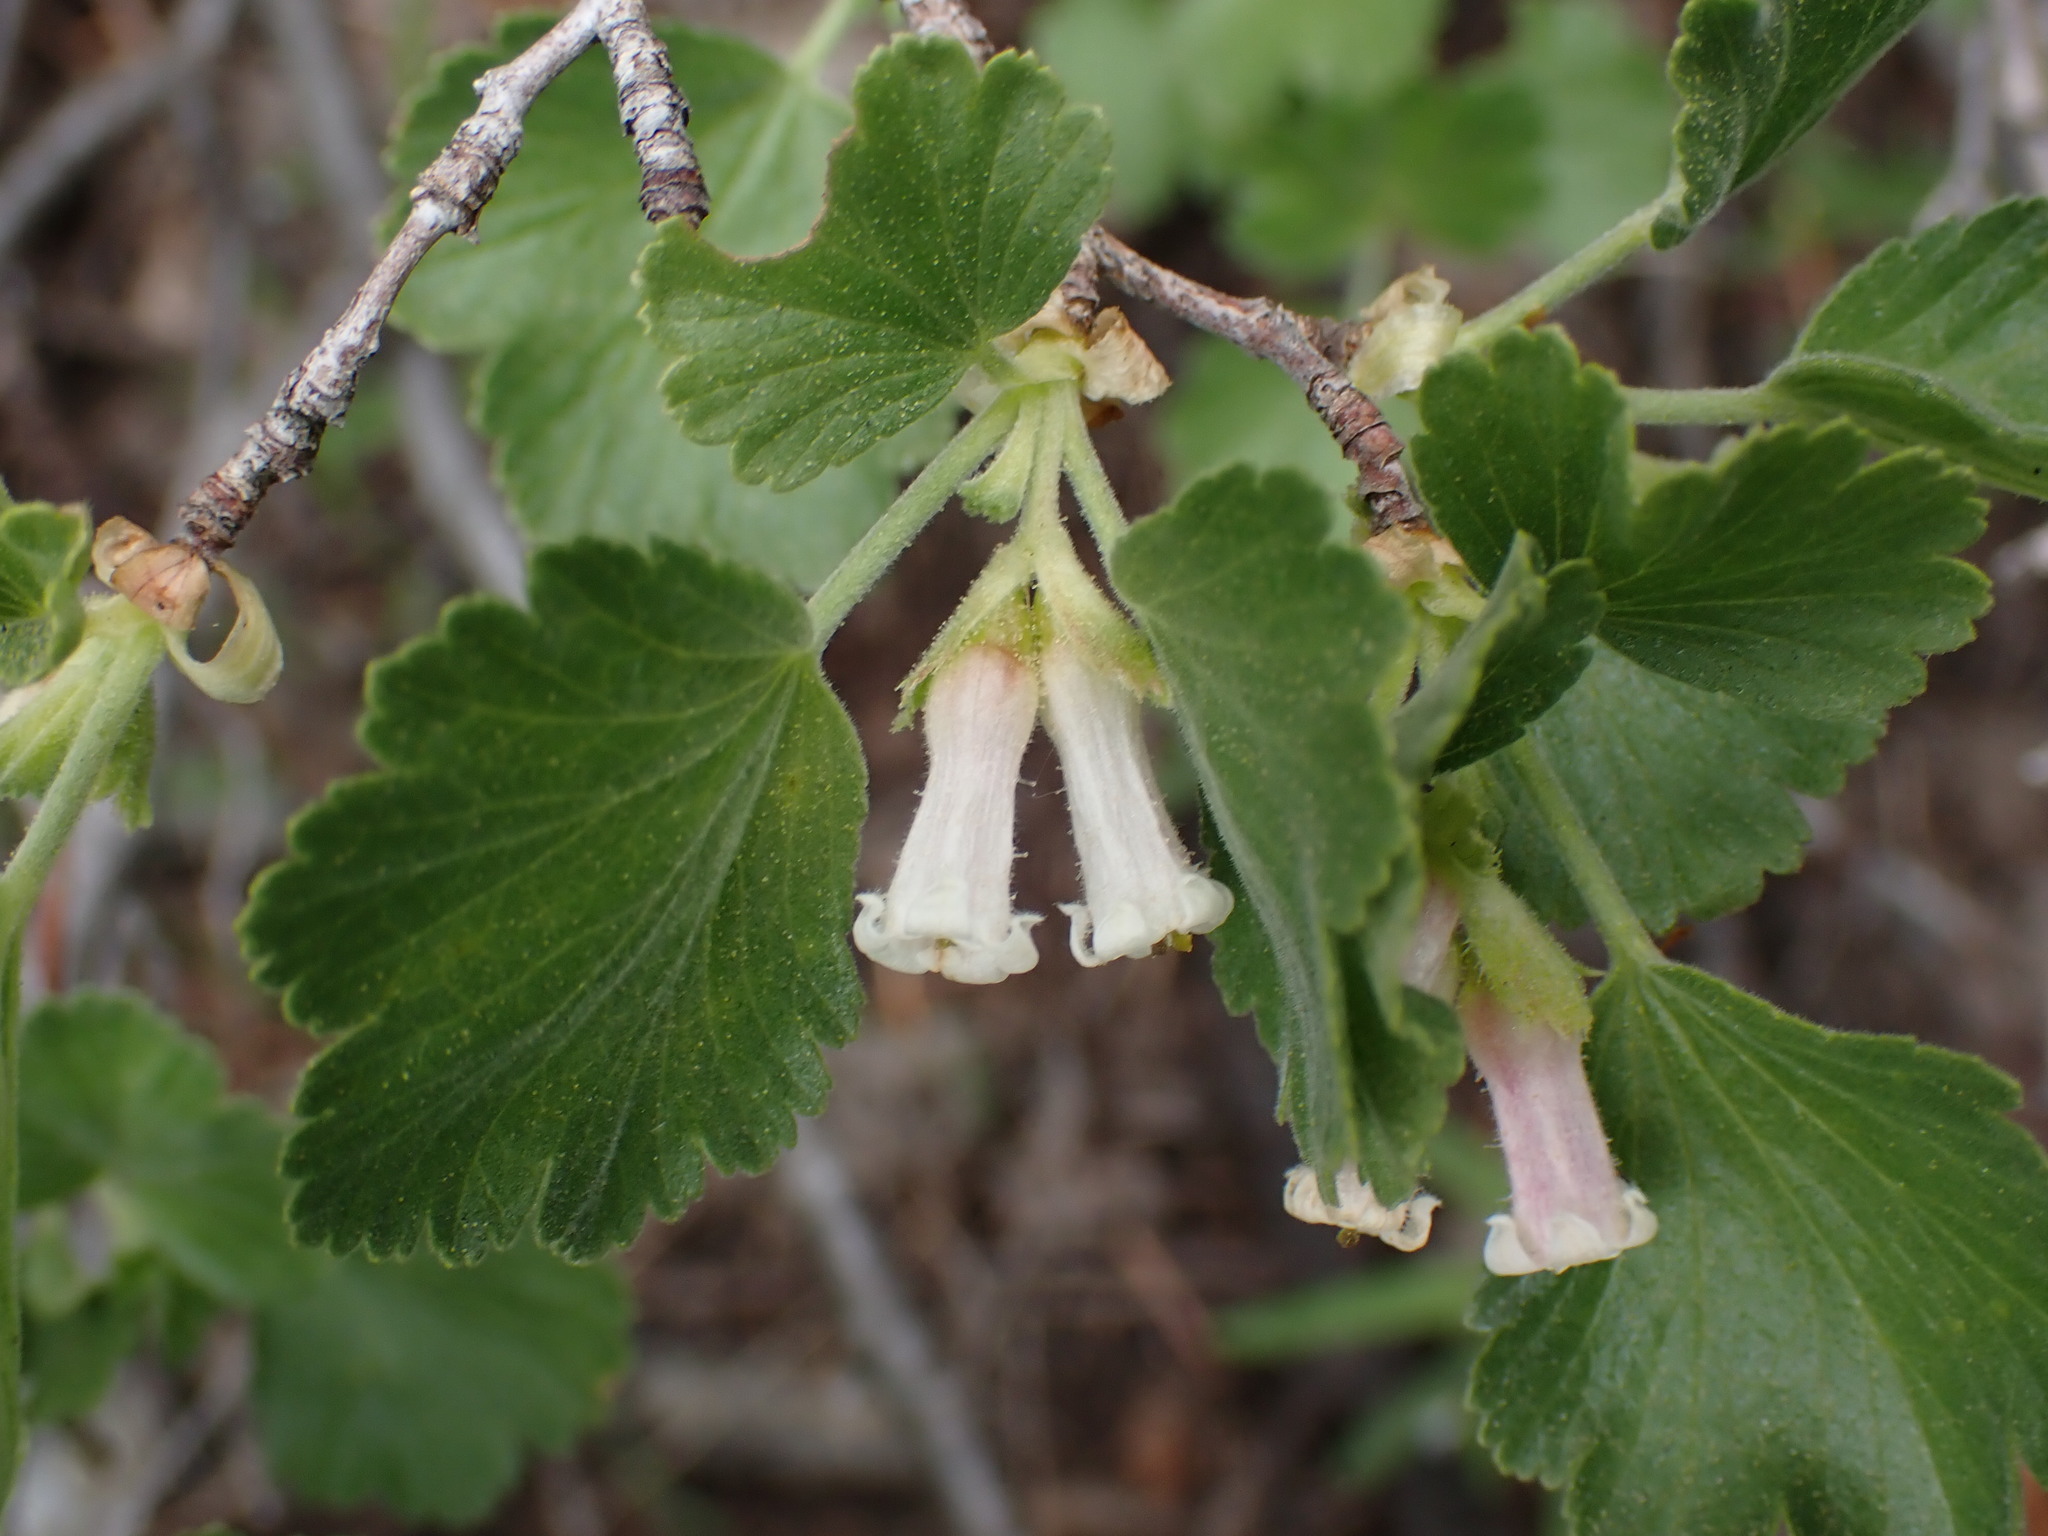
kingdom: Plantae
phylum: Tracheophyta
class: Magnoliopsida
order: Saxifragales
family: Grossulariaceae
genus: Ribes
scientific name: Ribes cereum
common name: Wax currant
